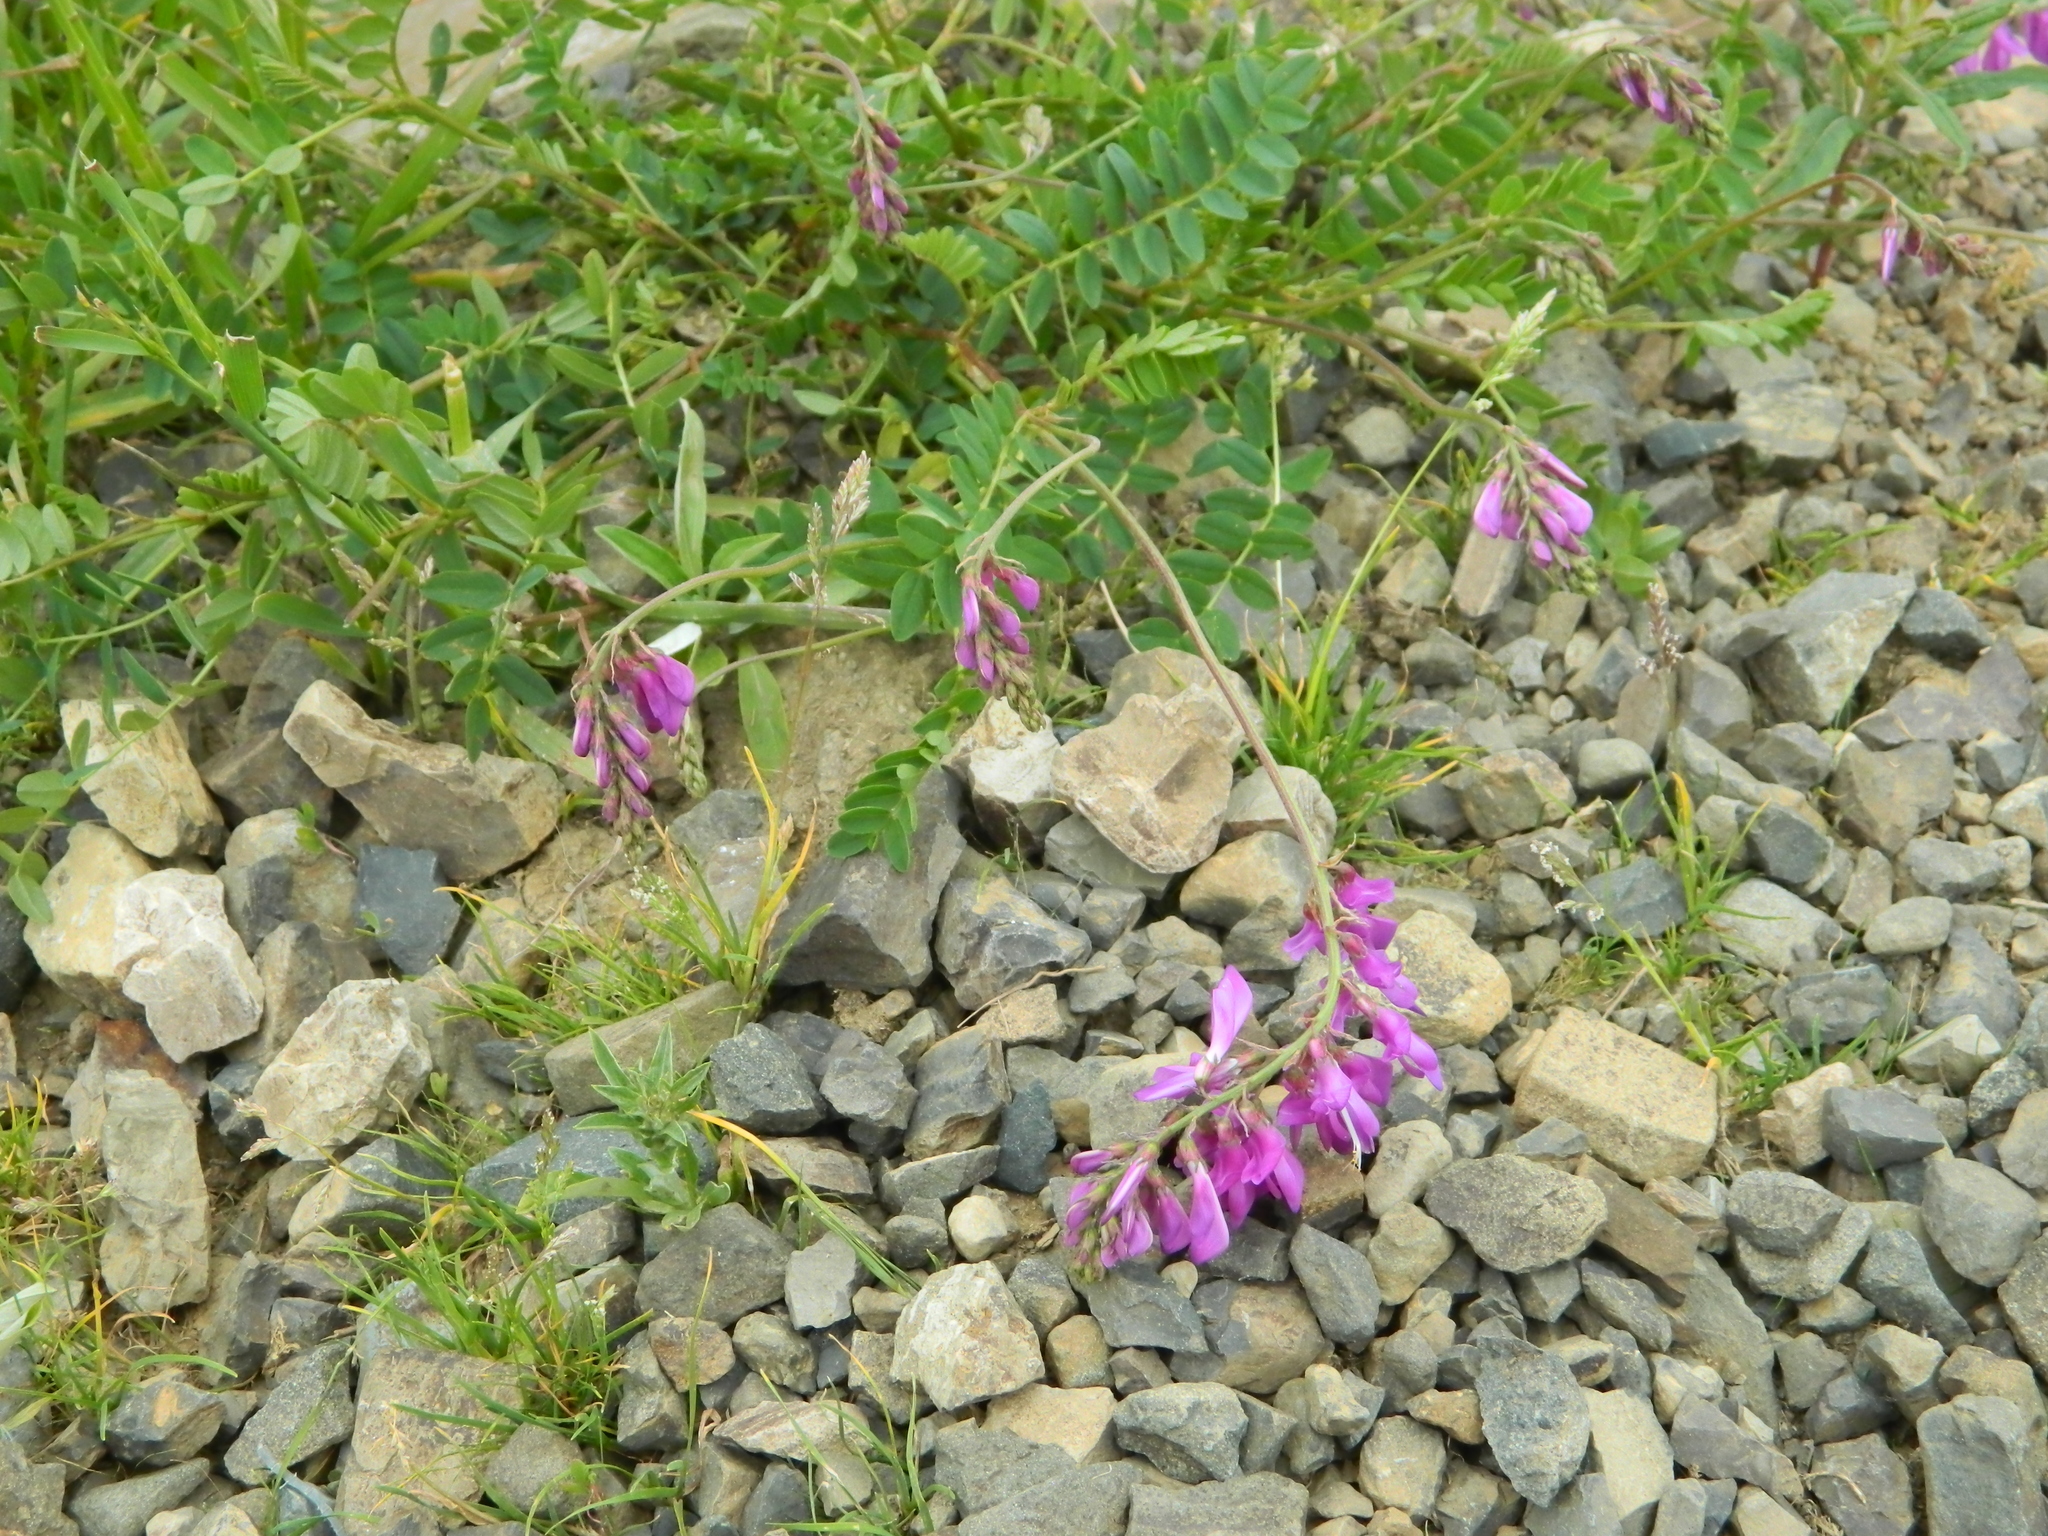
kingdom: Plantae
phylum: Tracheophyta
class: Magnoliopsida
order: Fabales
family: Fabaceae
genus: Hedysarum
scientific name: Hedysarum caucasicum
